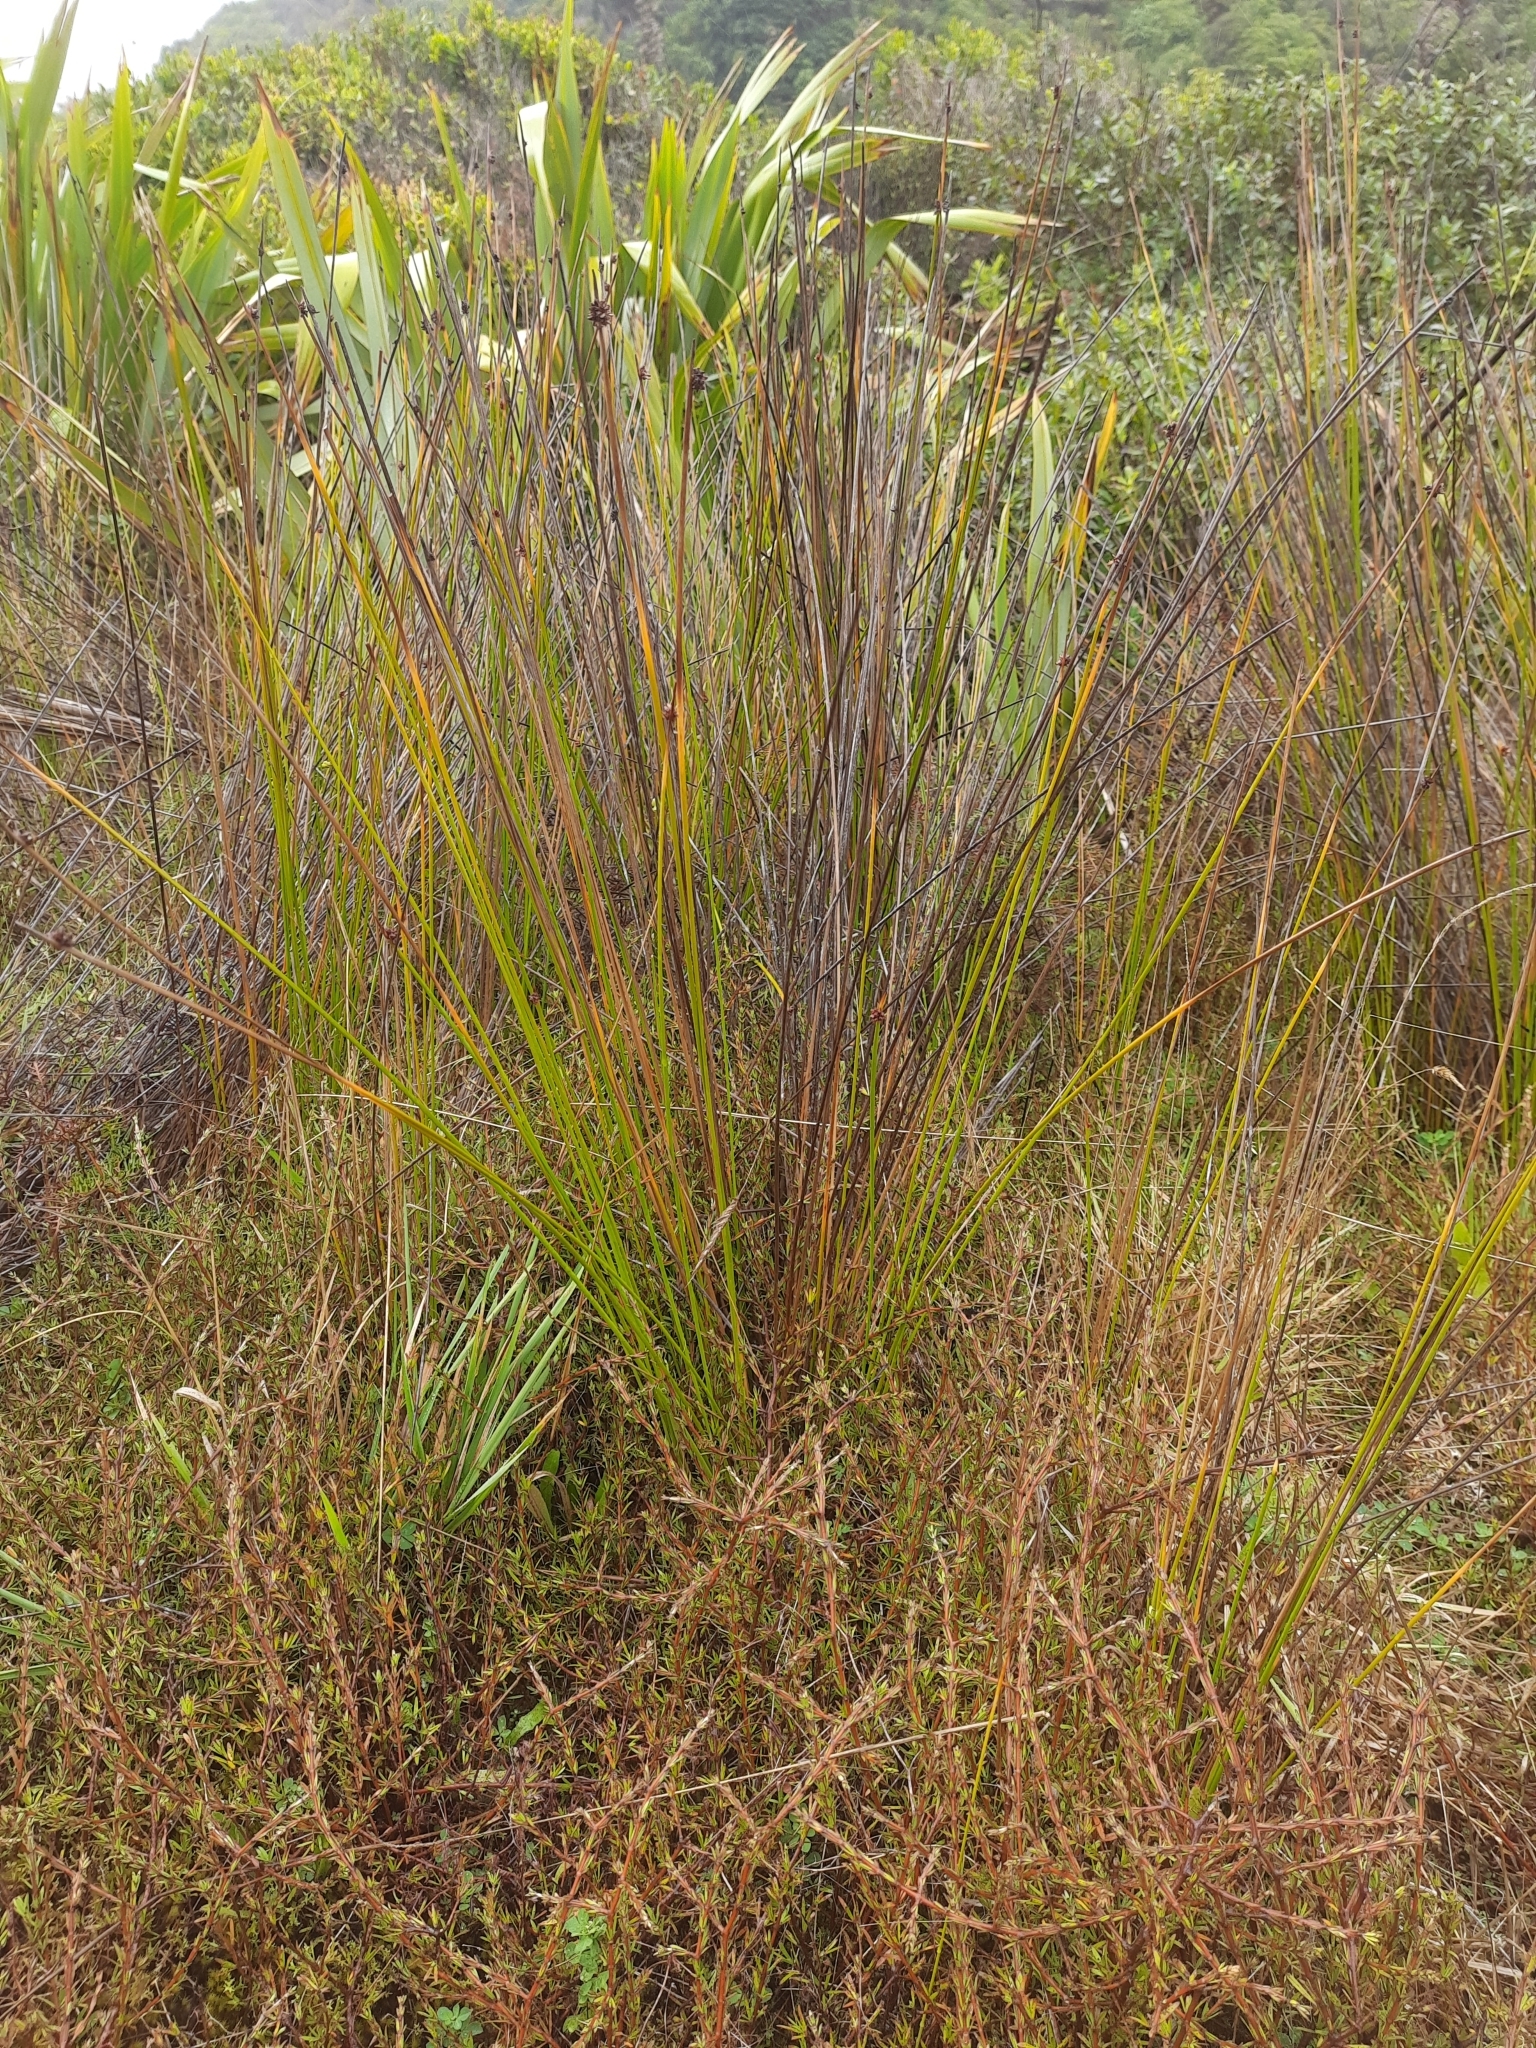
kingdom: Plantae
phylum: Tracheophyta
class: Liliopsida
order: Poales
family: Cyperaceae
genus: Ficinia
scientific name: Ficinia nodosa
